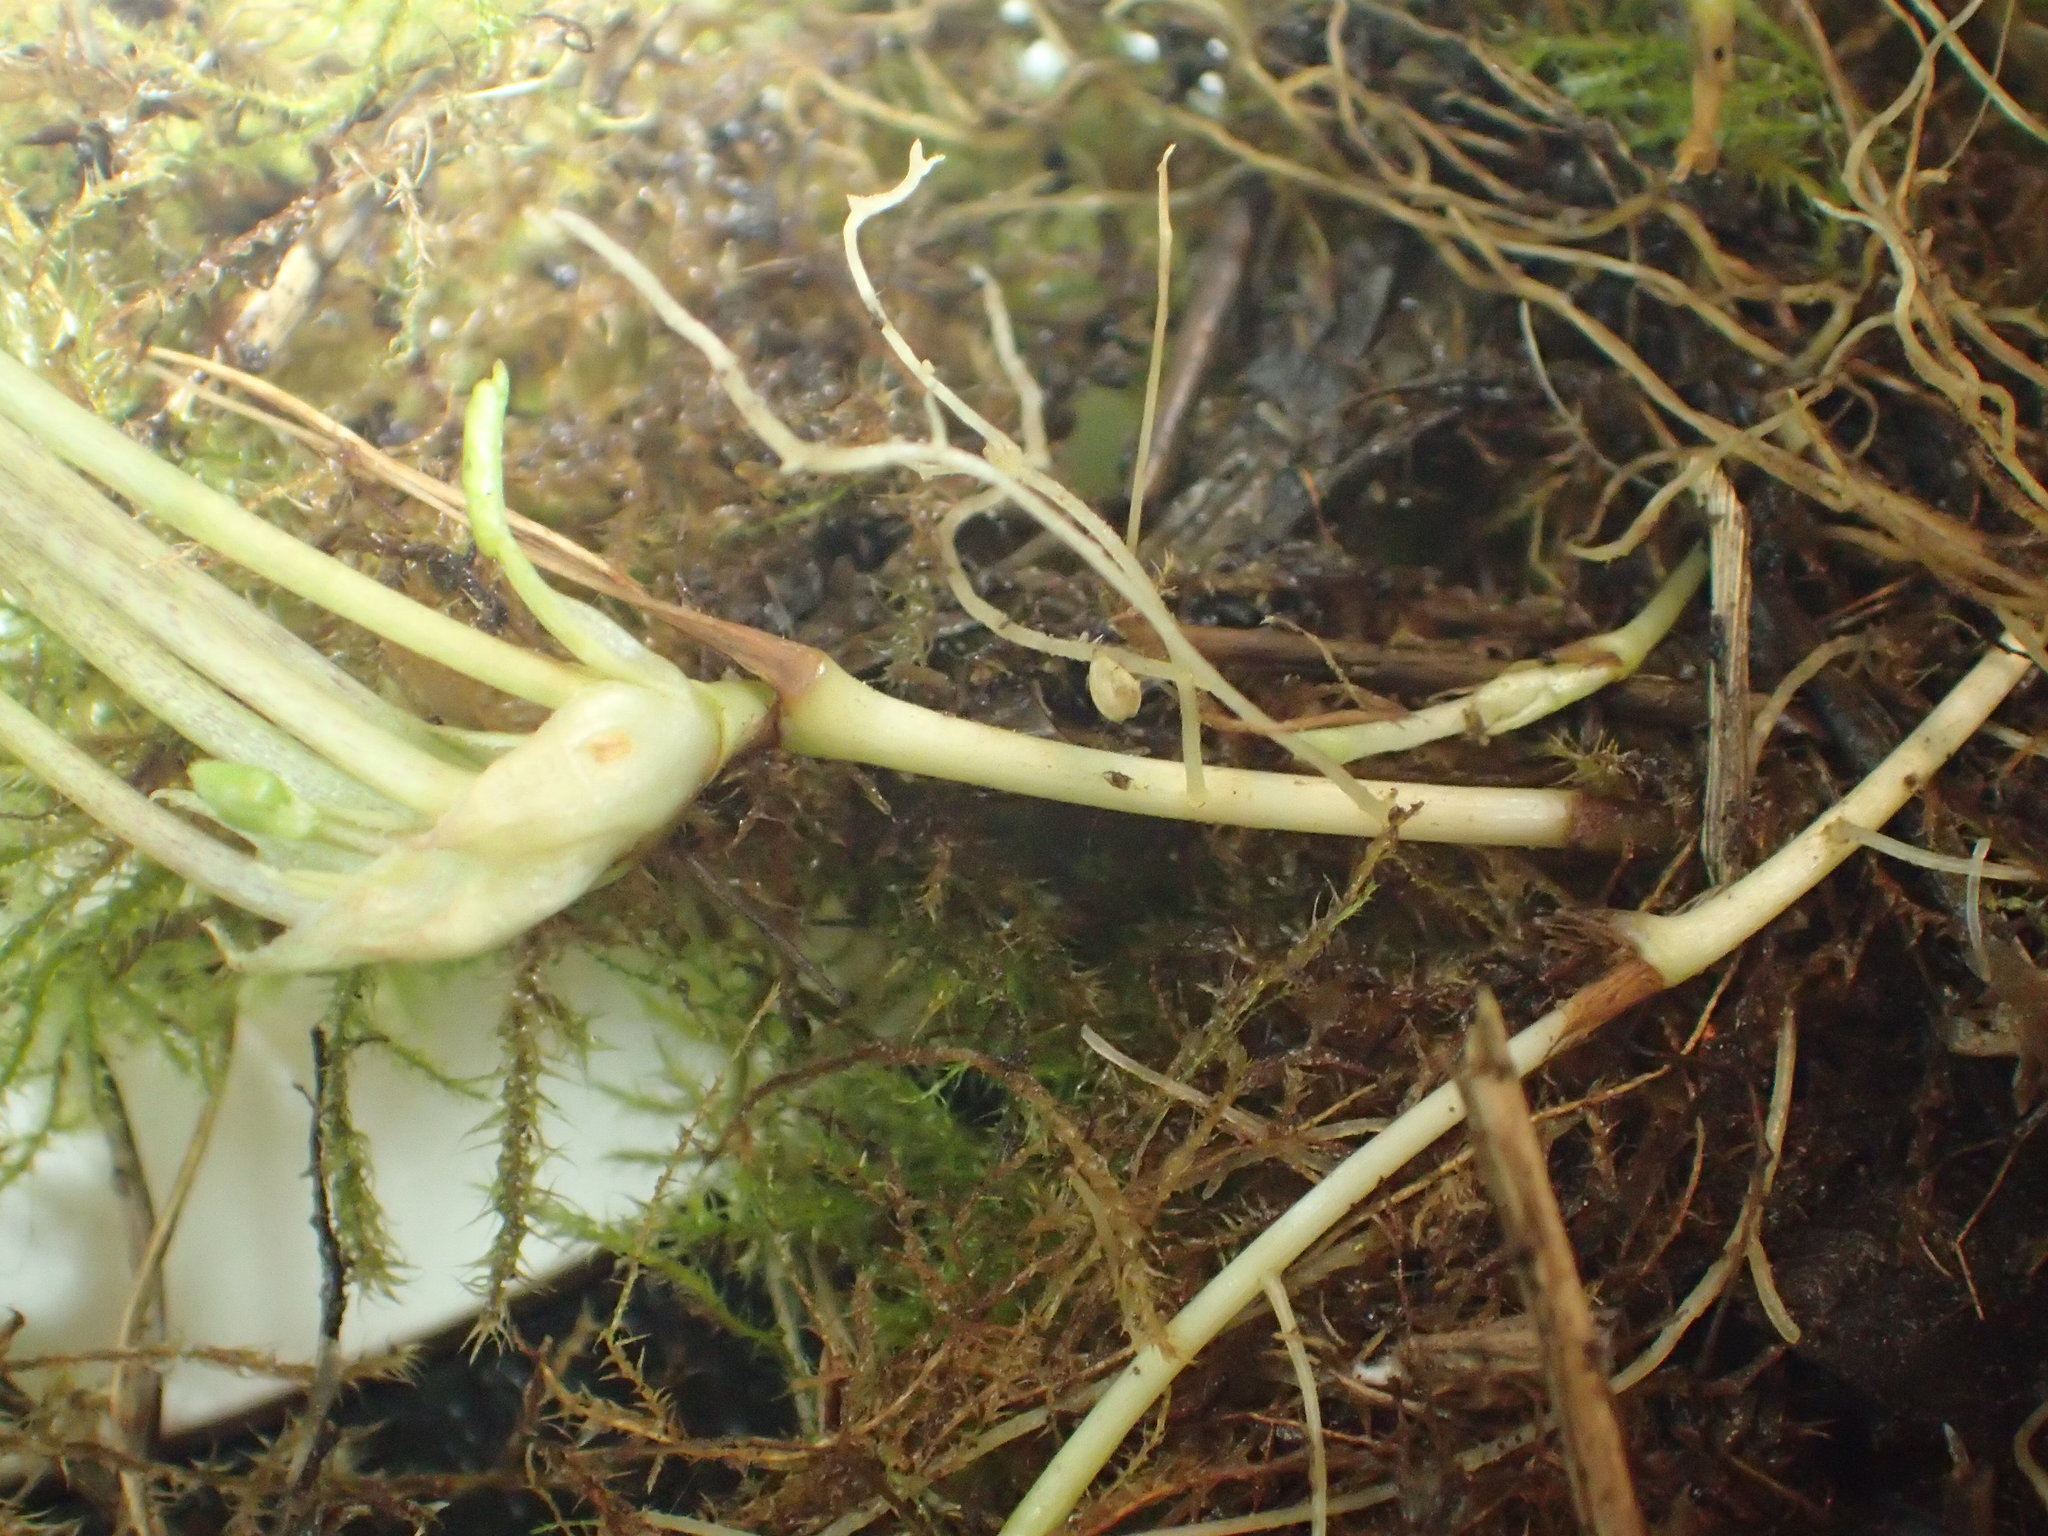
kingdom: Plantae
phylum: Tracheophyta
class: Magnoliopsida
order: Malpighiales
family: Violaceae
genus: Viola
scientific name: Viola epipsila
